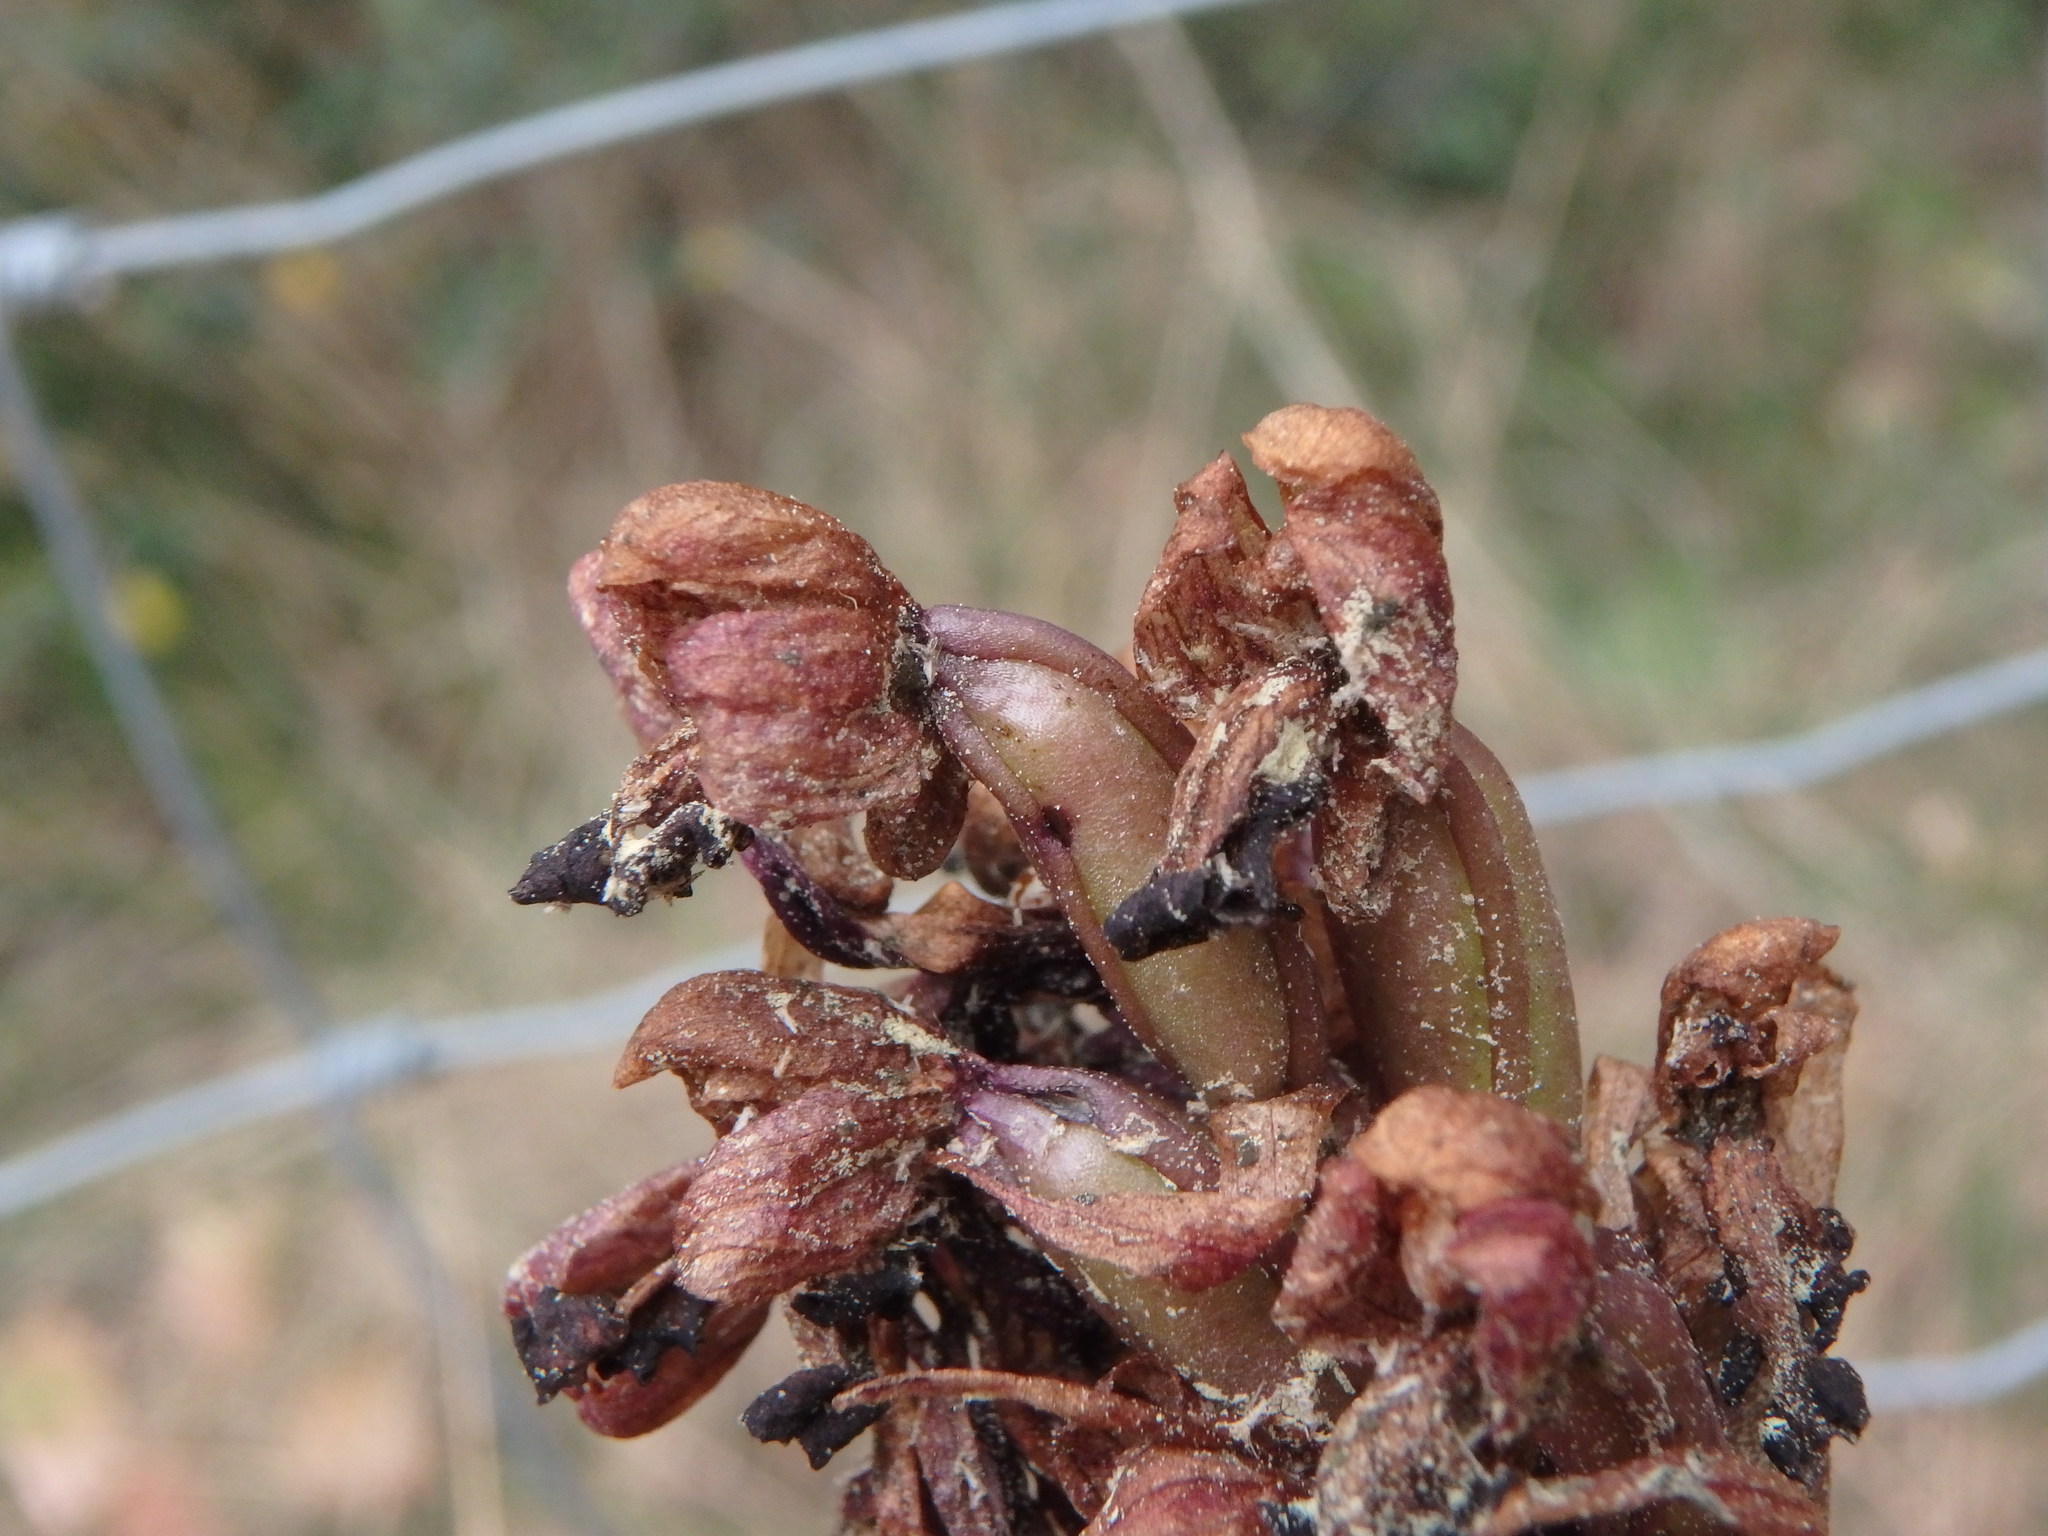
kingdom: Plantae
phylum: Tracheophyta
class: Liliopsida
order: Asparagales
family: Orchidaceae
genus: Himantoglossum
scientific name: Himantoglossum robertianum
